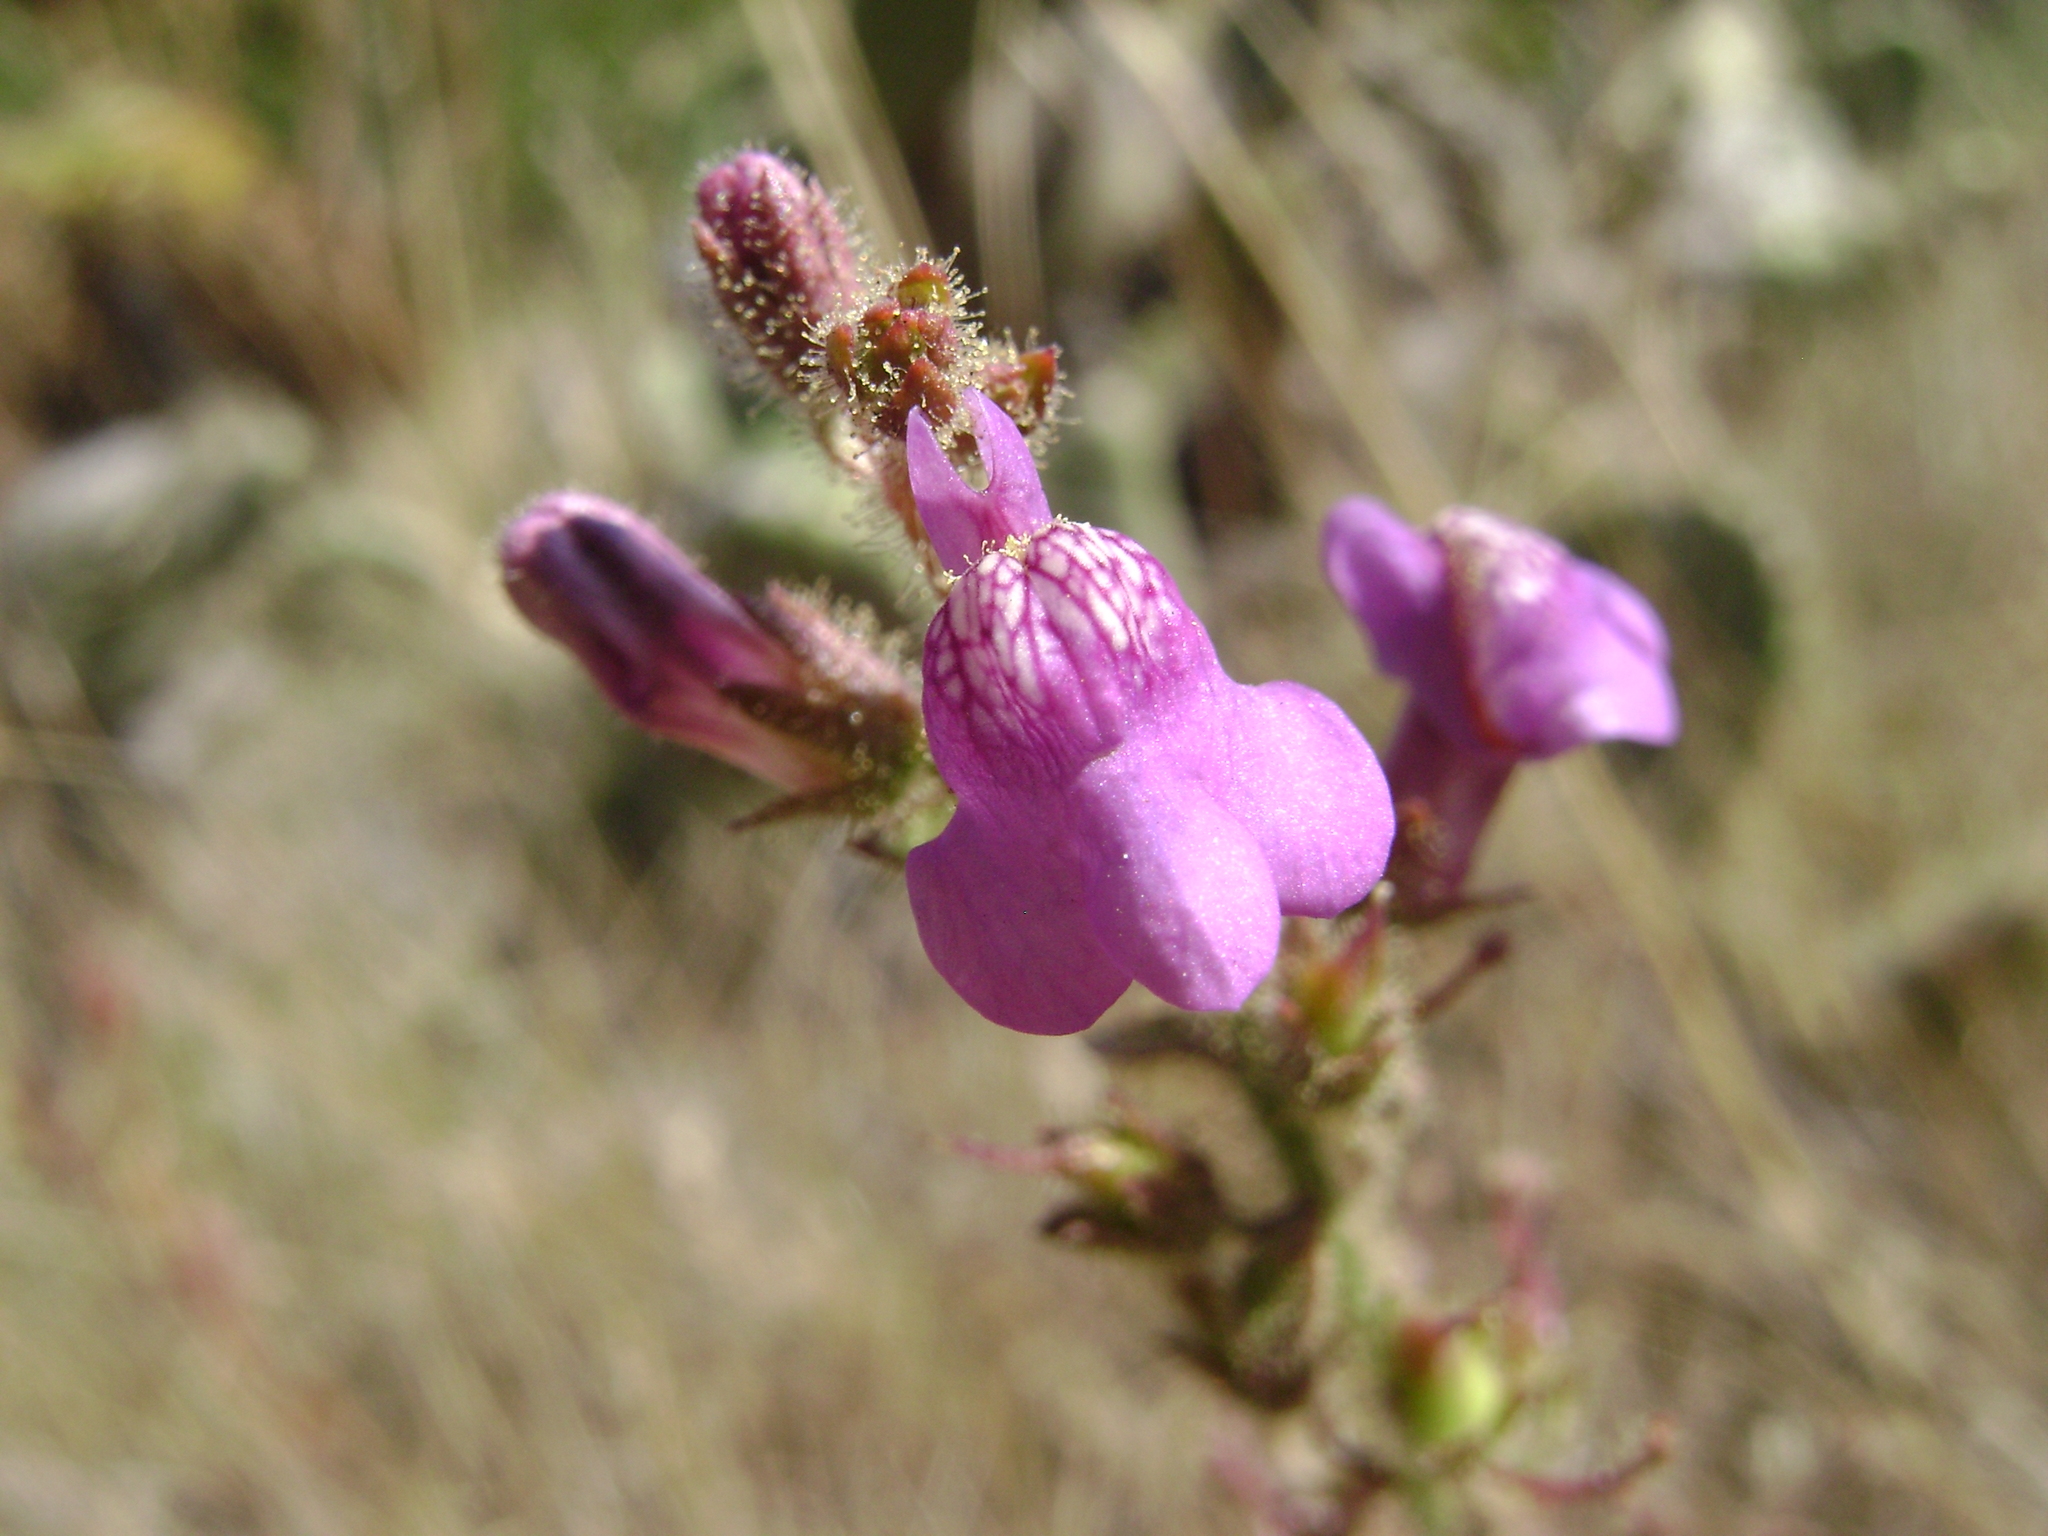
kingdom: Plantae
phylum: Tracheophyta
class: Magnoliopsida
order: Lamiales
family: Plantaginaceae
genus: Sairocarpus
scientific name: Sairocarpus nuttallianus
